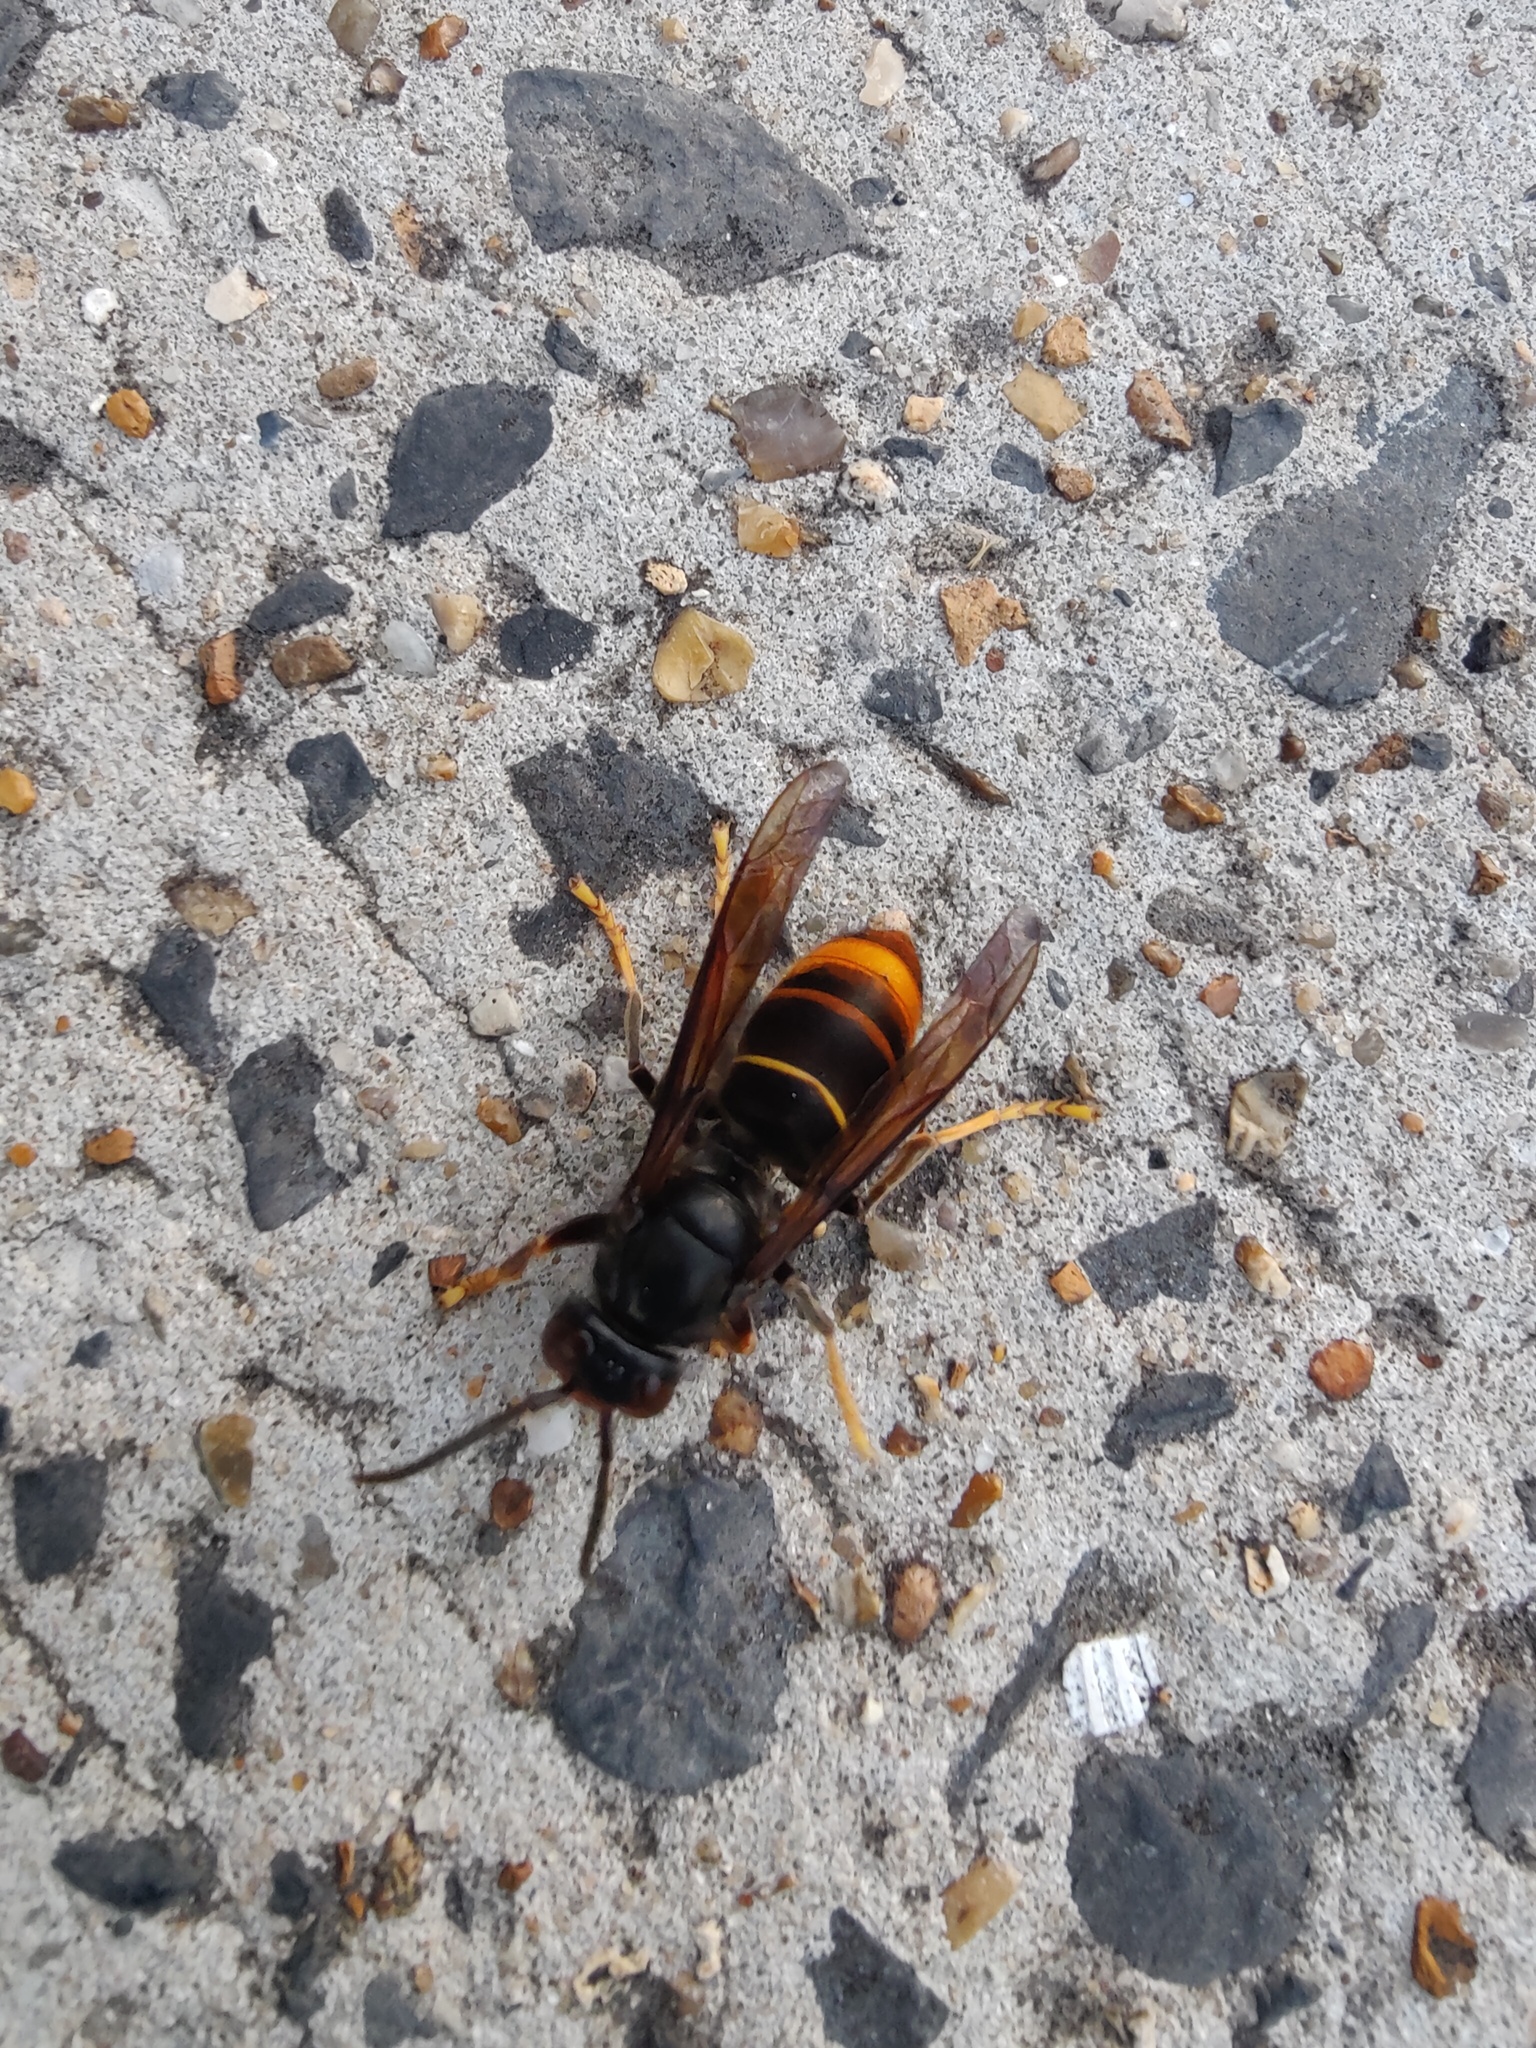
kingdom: Animalia
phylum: Arthropoda
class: Insecta
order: Hymenoptera
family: Vespidae
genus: Vespa
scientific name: Vespa velutina
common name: Asian hornet
